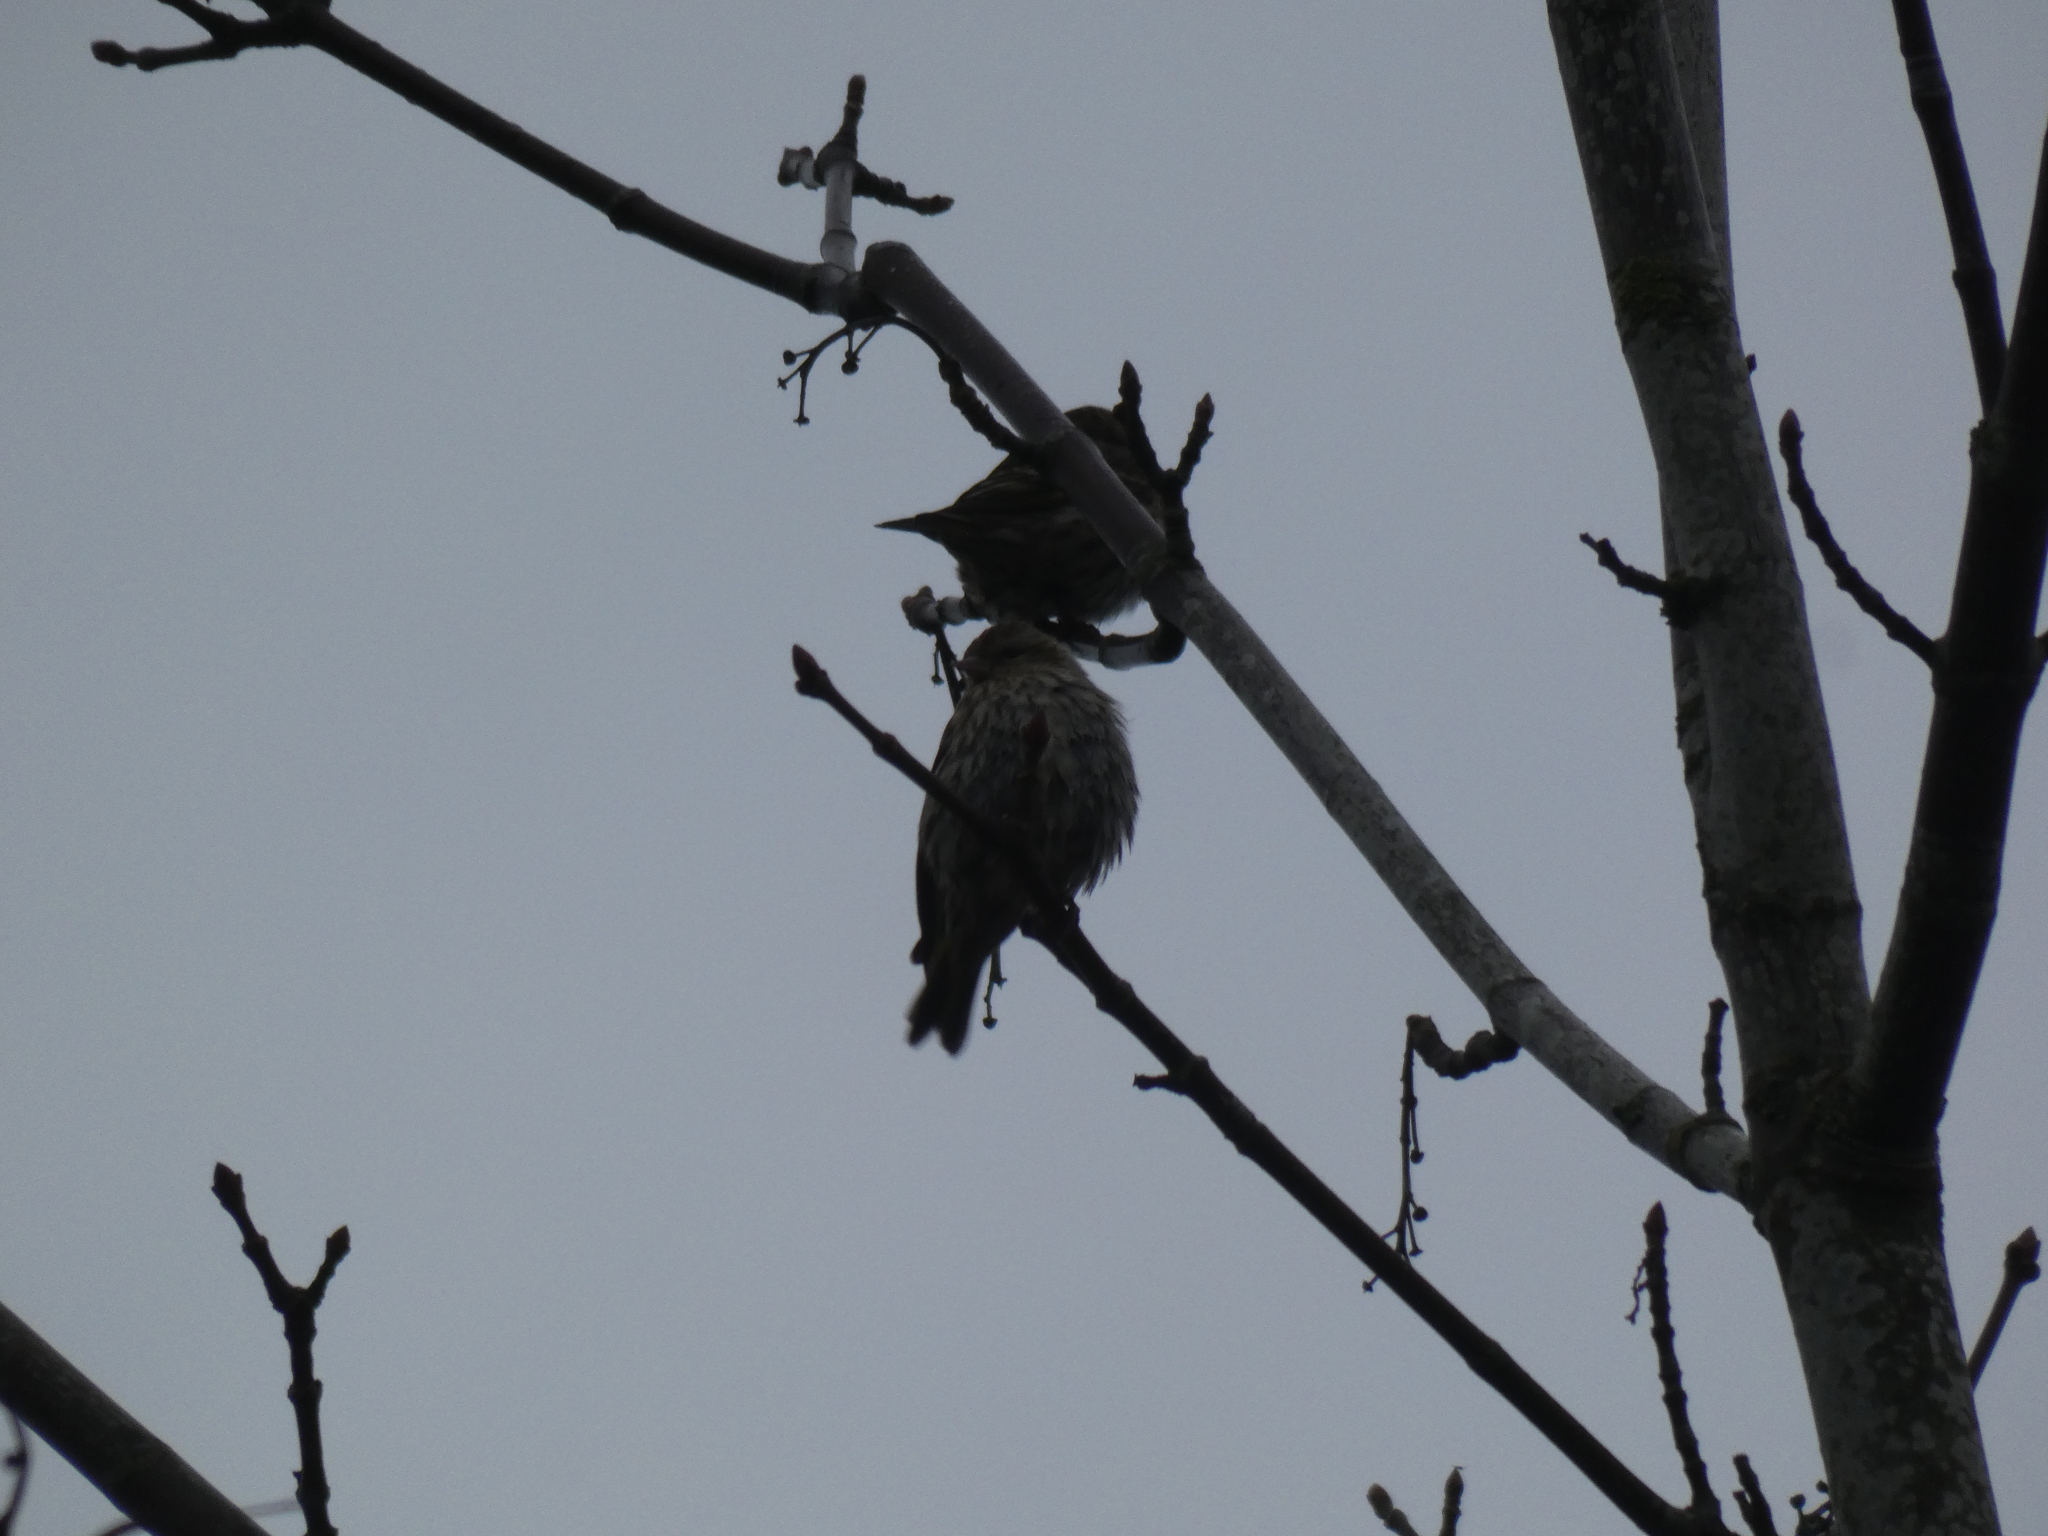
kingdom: Animalia
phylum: Chordata
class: Aves
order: Passeriformes
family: Fringillidae
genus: Spinus
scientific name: Spinus pinus
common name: Pine siskin
